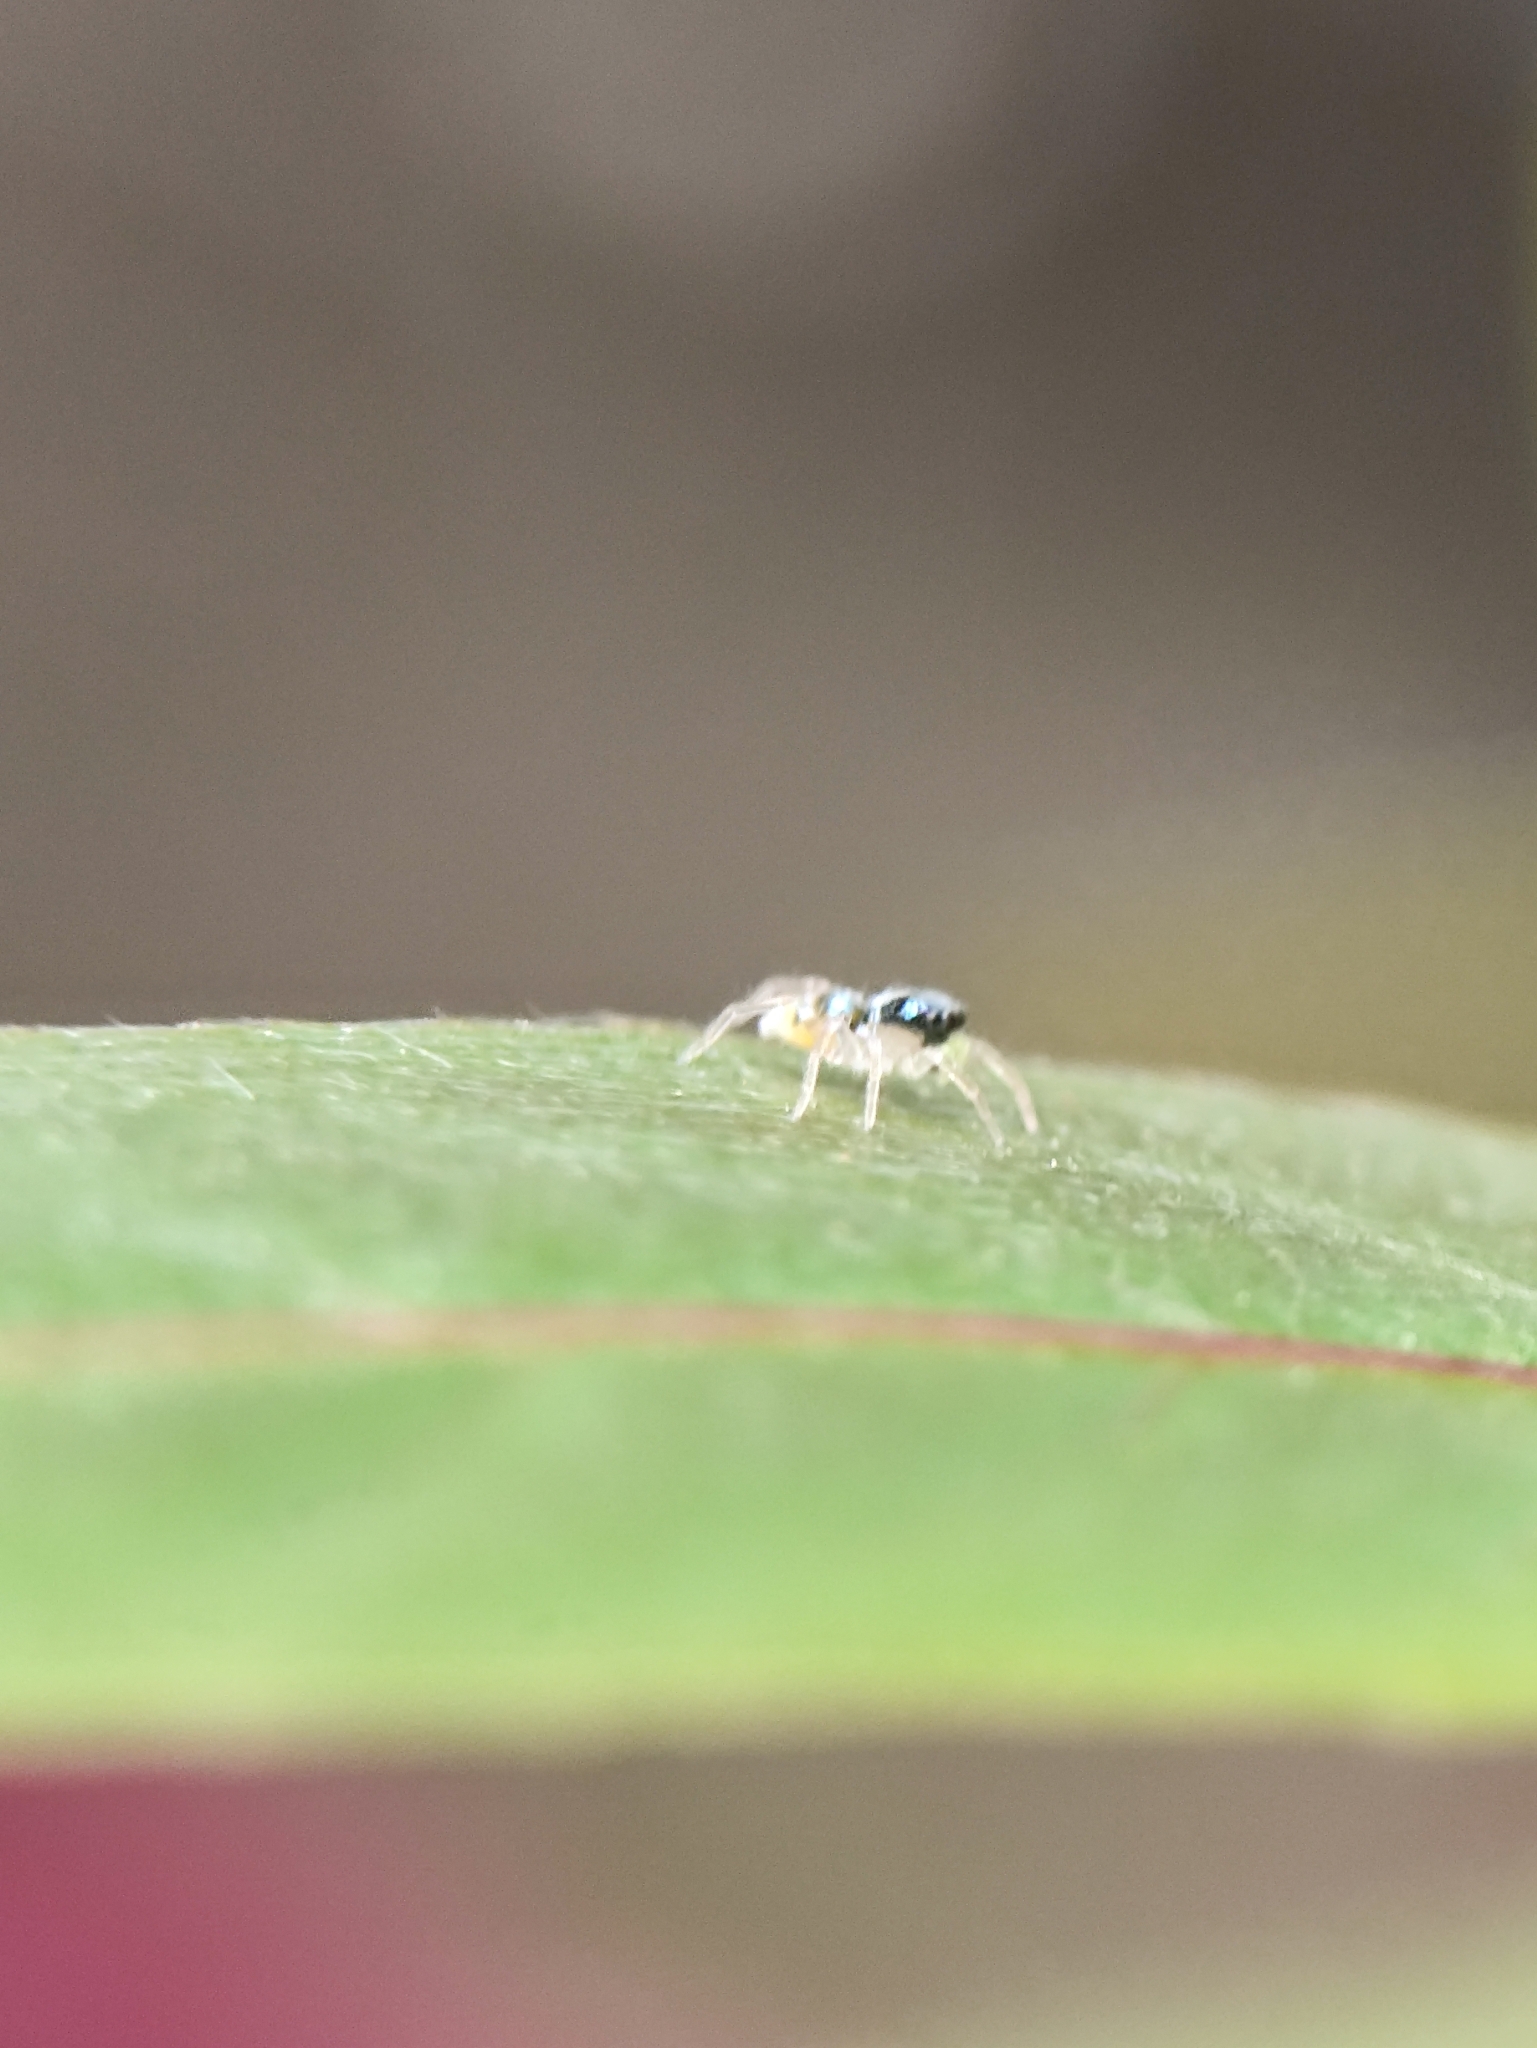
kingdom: Animalia
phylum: Arthropoda
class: Arachnida
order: Araneae
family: Salticidae
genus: Phintella
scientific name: Phintella vittata
